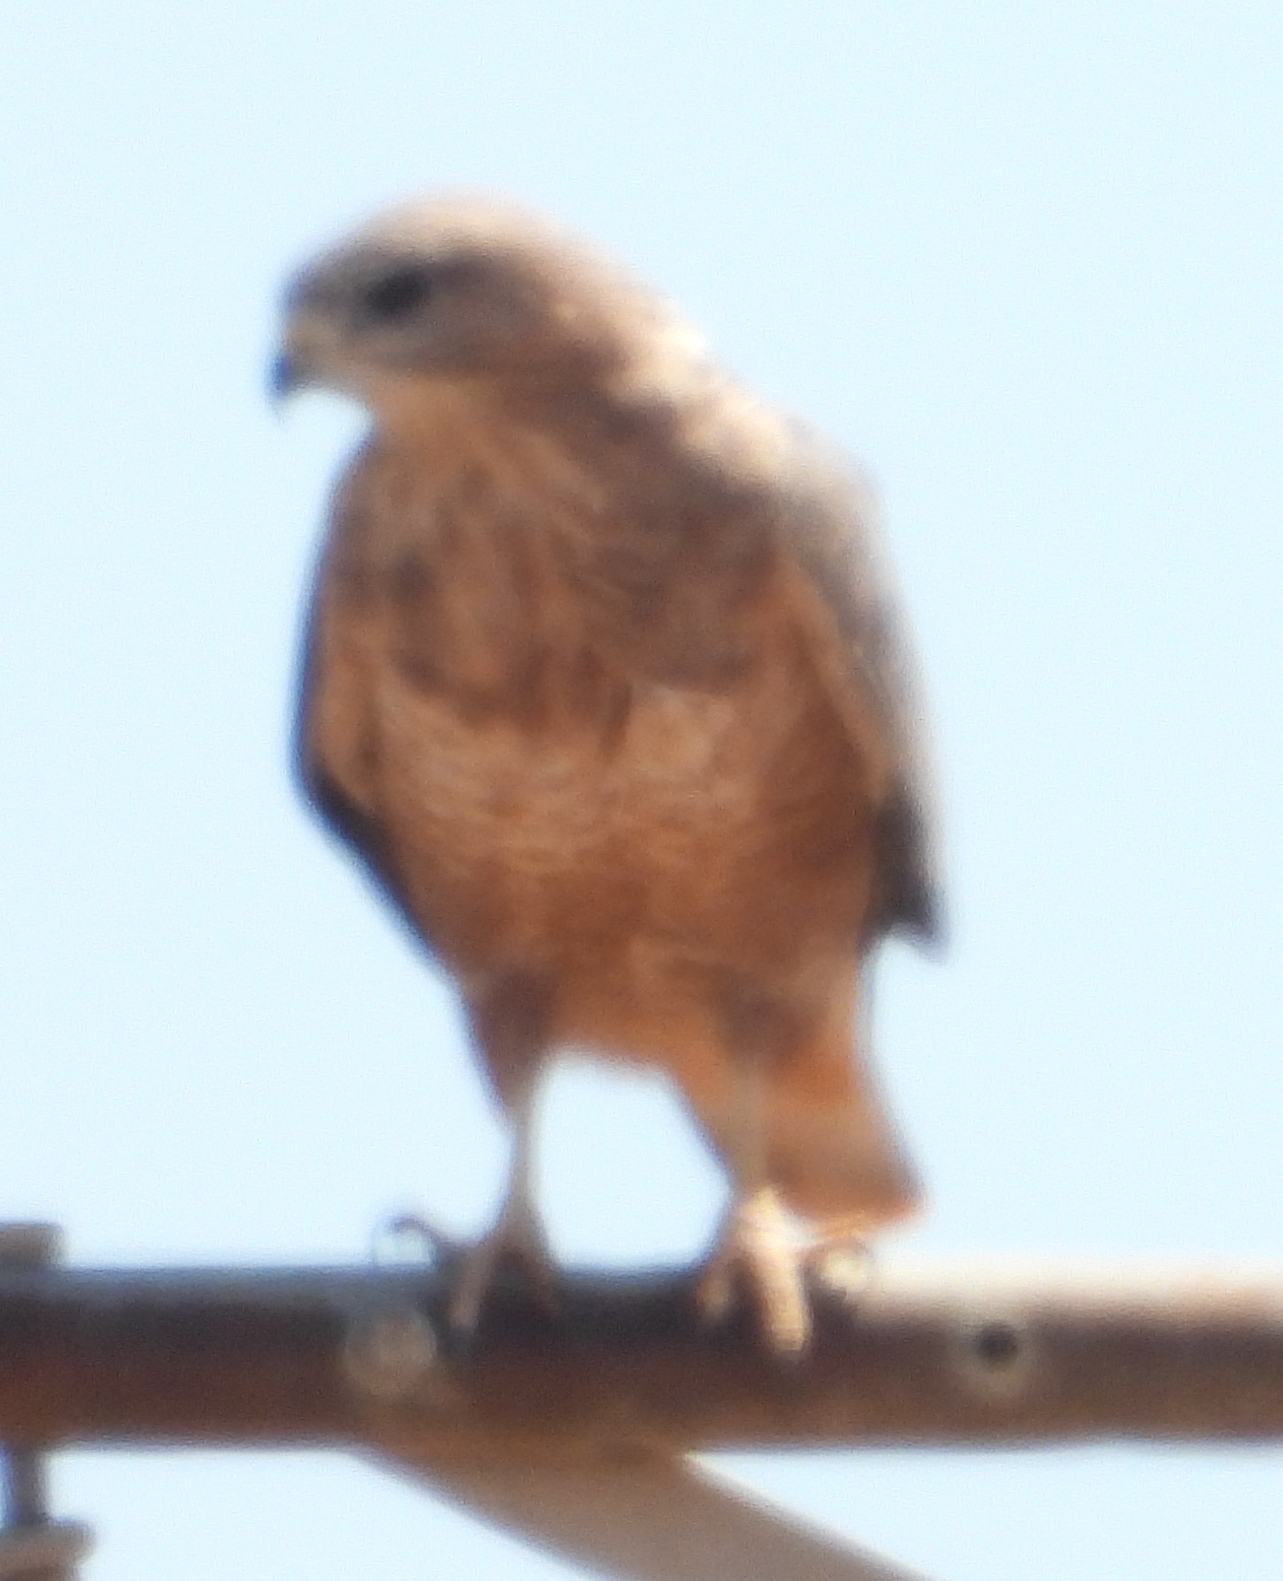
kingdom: Animalia
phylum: Chordata
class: Aves
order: Accipitriformes
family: Accipitridae
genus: Buteo
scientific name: Buteo buteo
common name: Common buzzard
